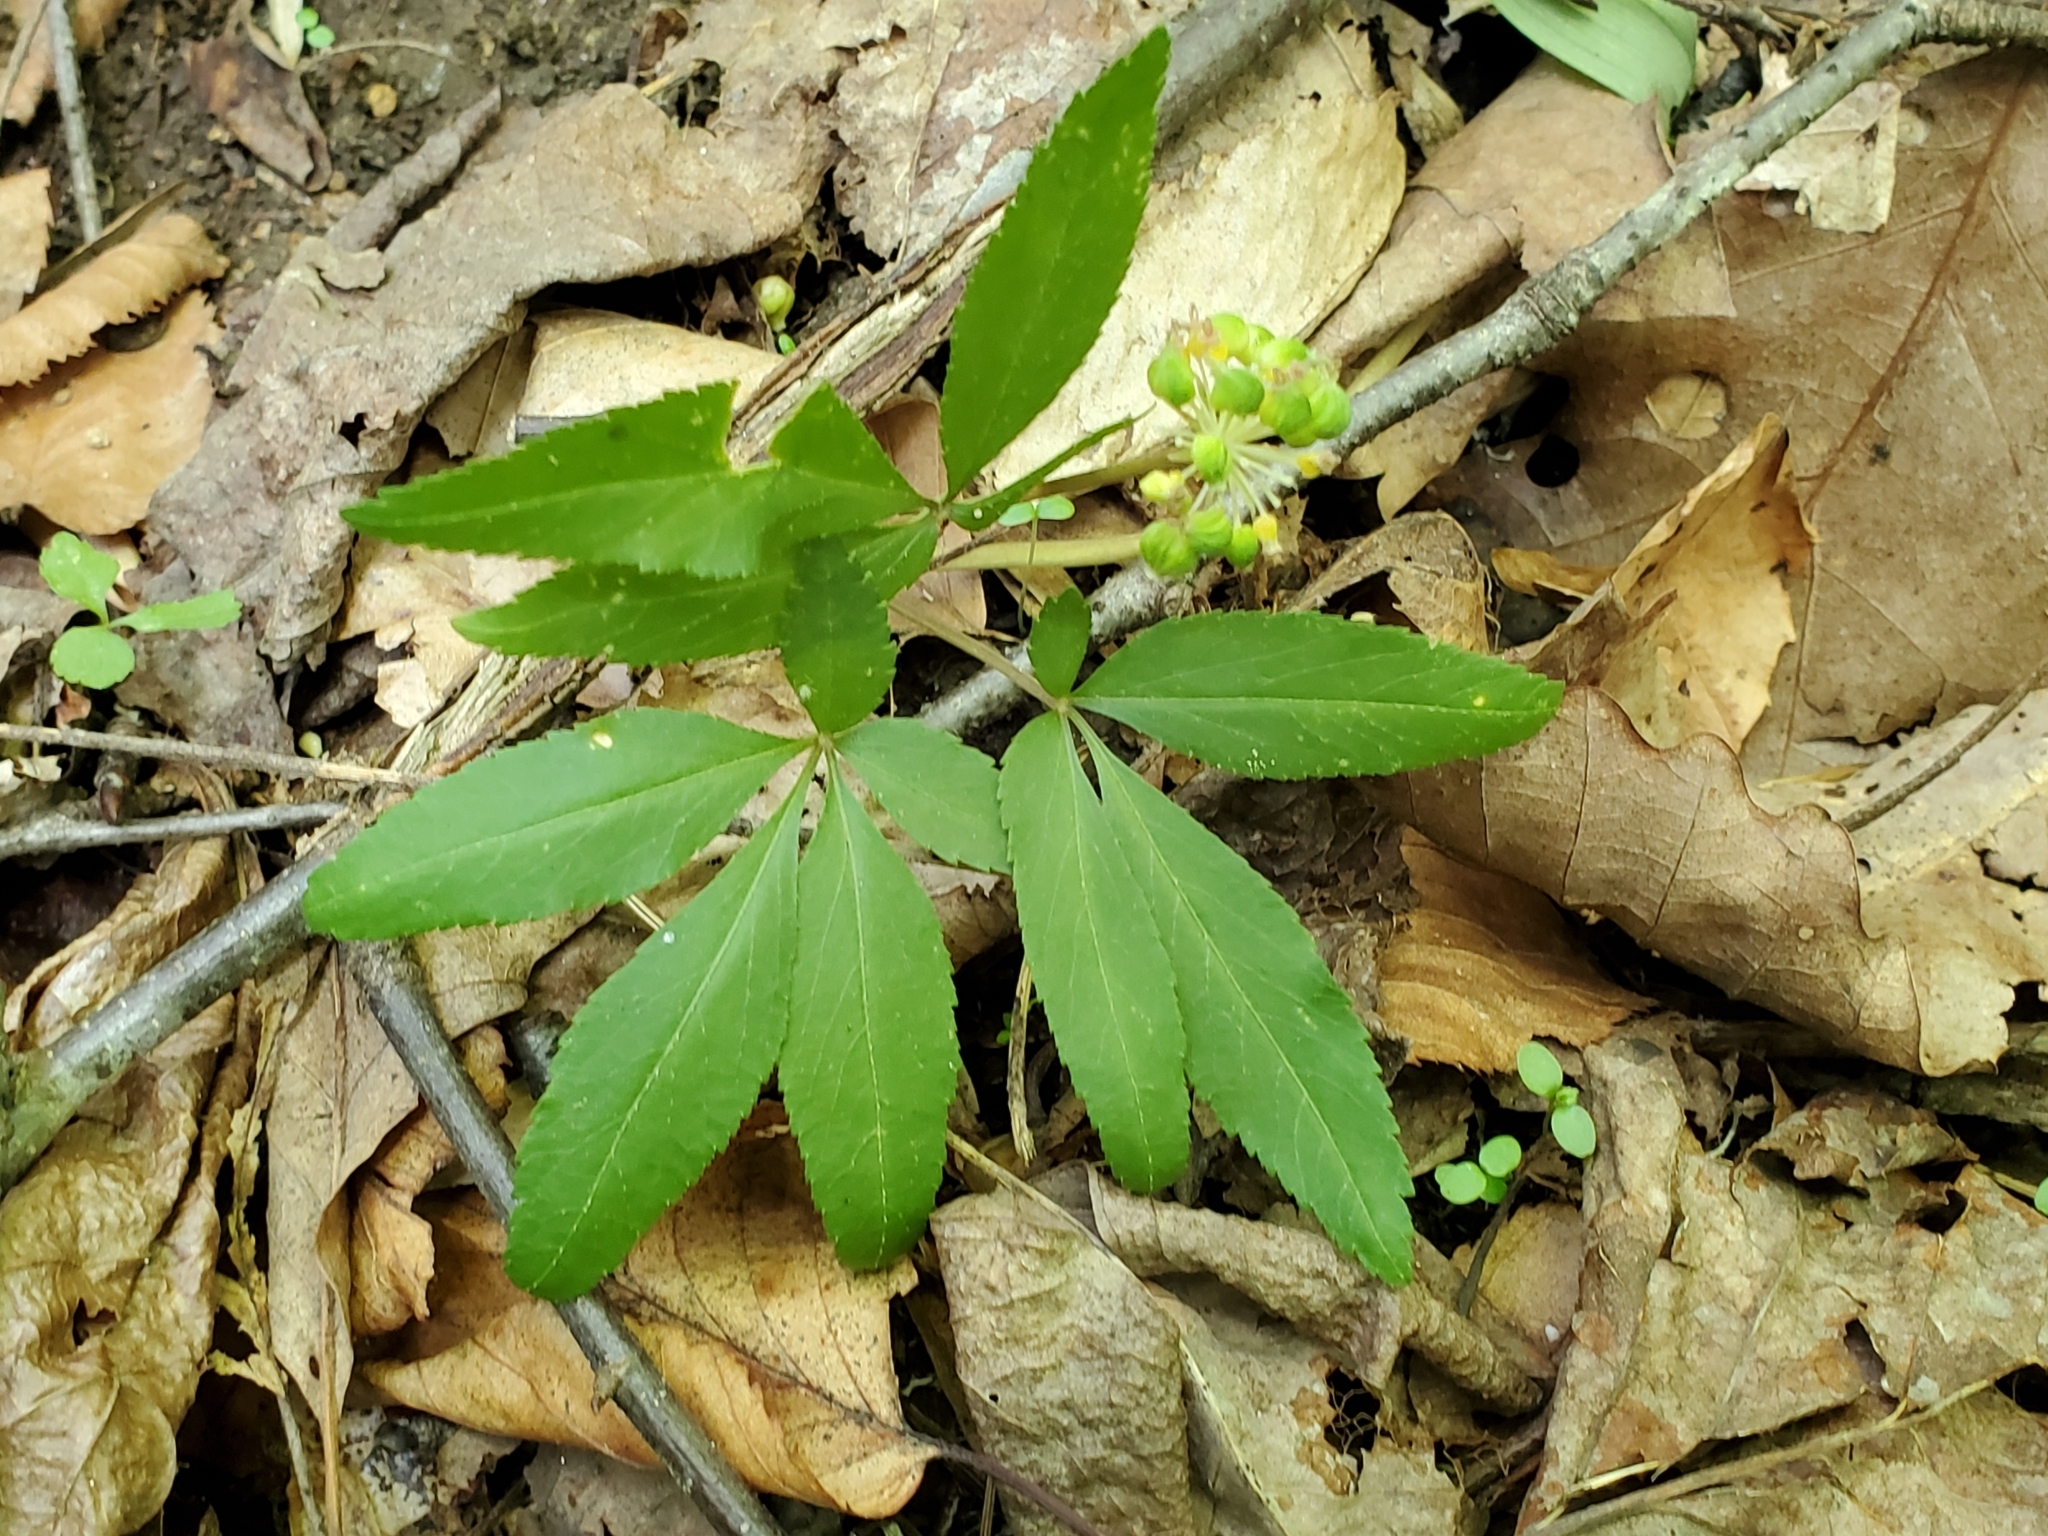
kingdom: Plantae
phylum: Tracheophyta
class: Magnoliopsida
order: Apiales
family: Araliaceae
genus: Panax
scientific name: Panax trifolius
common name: Dwarf ginseng
